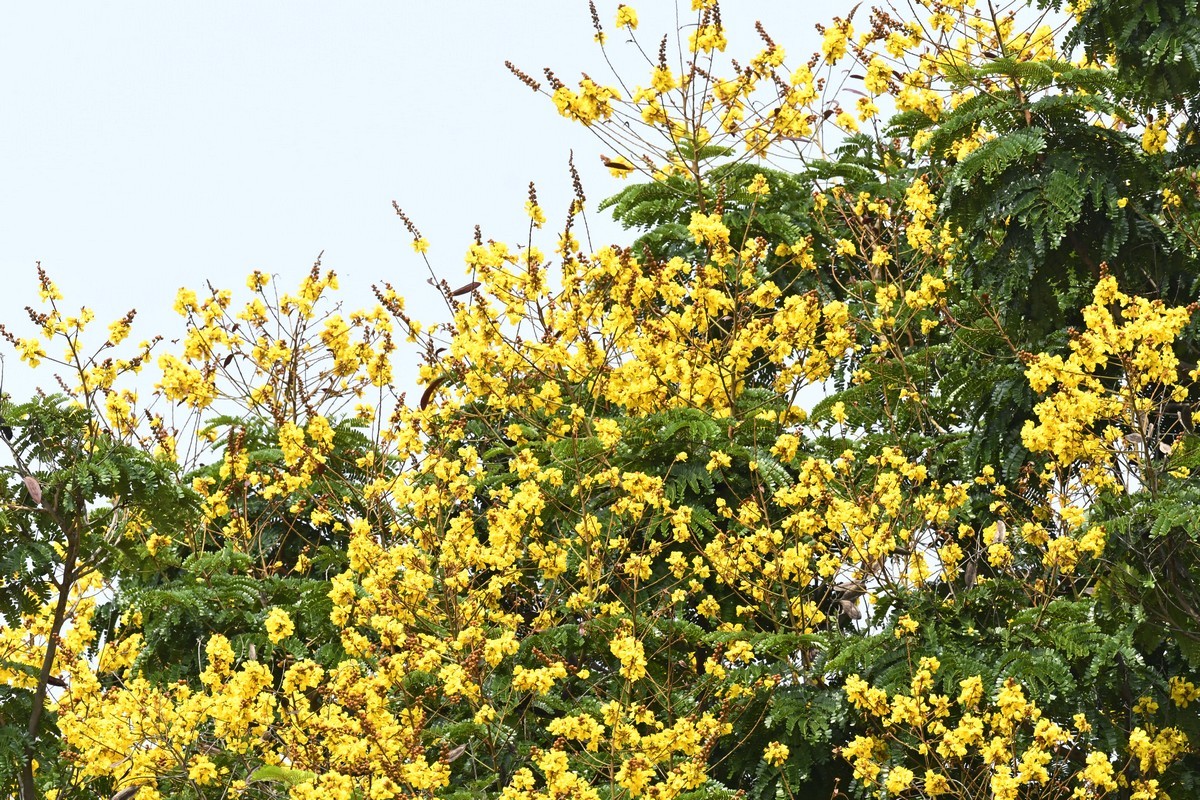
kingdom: Plantae
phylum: Tracheophyta
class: Magnoliopsida
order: Fabales
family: Fabaceae
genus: Peltophorum
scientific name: Peltophorum pterocarpum
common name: Yellow flame
